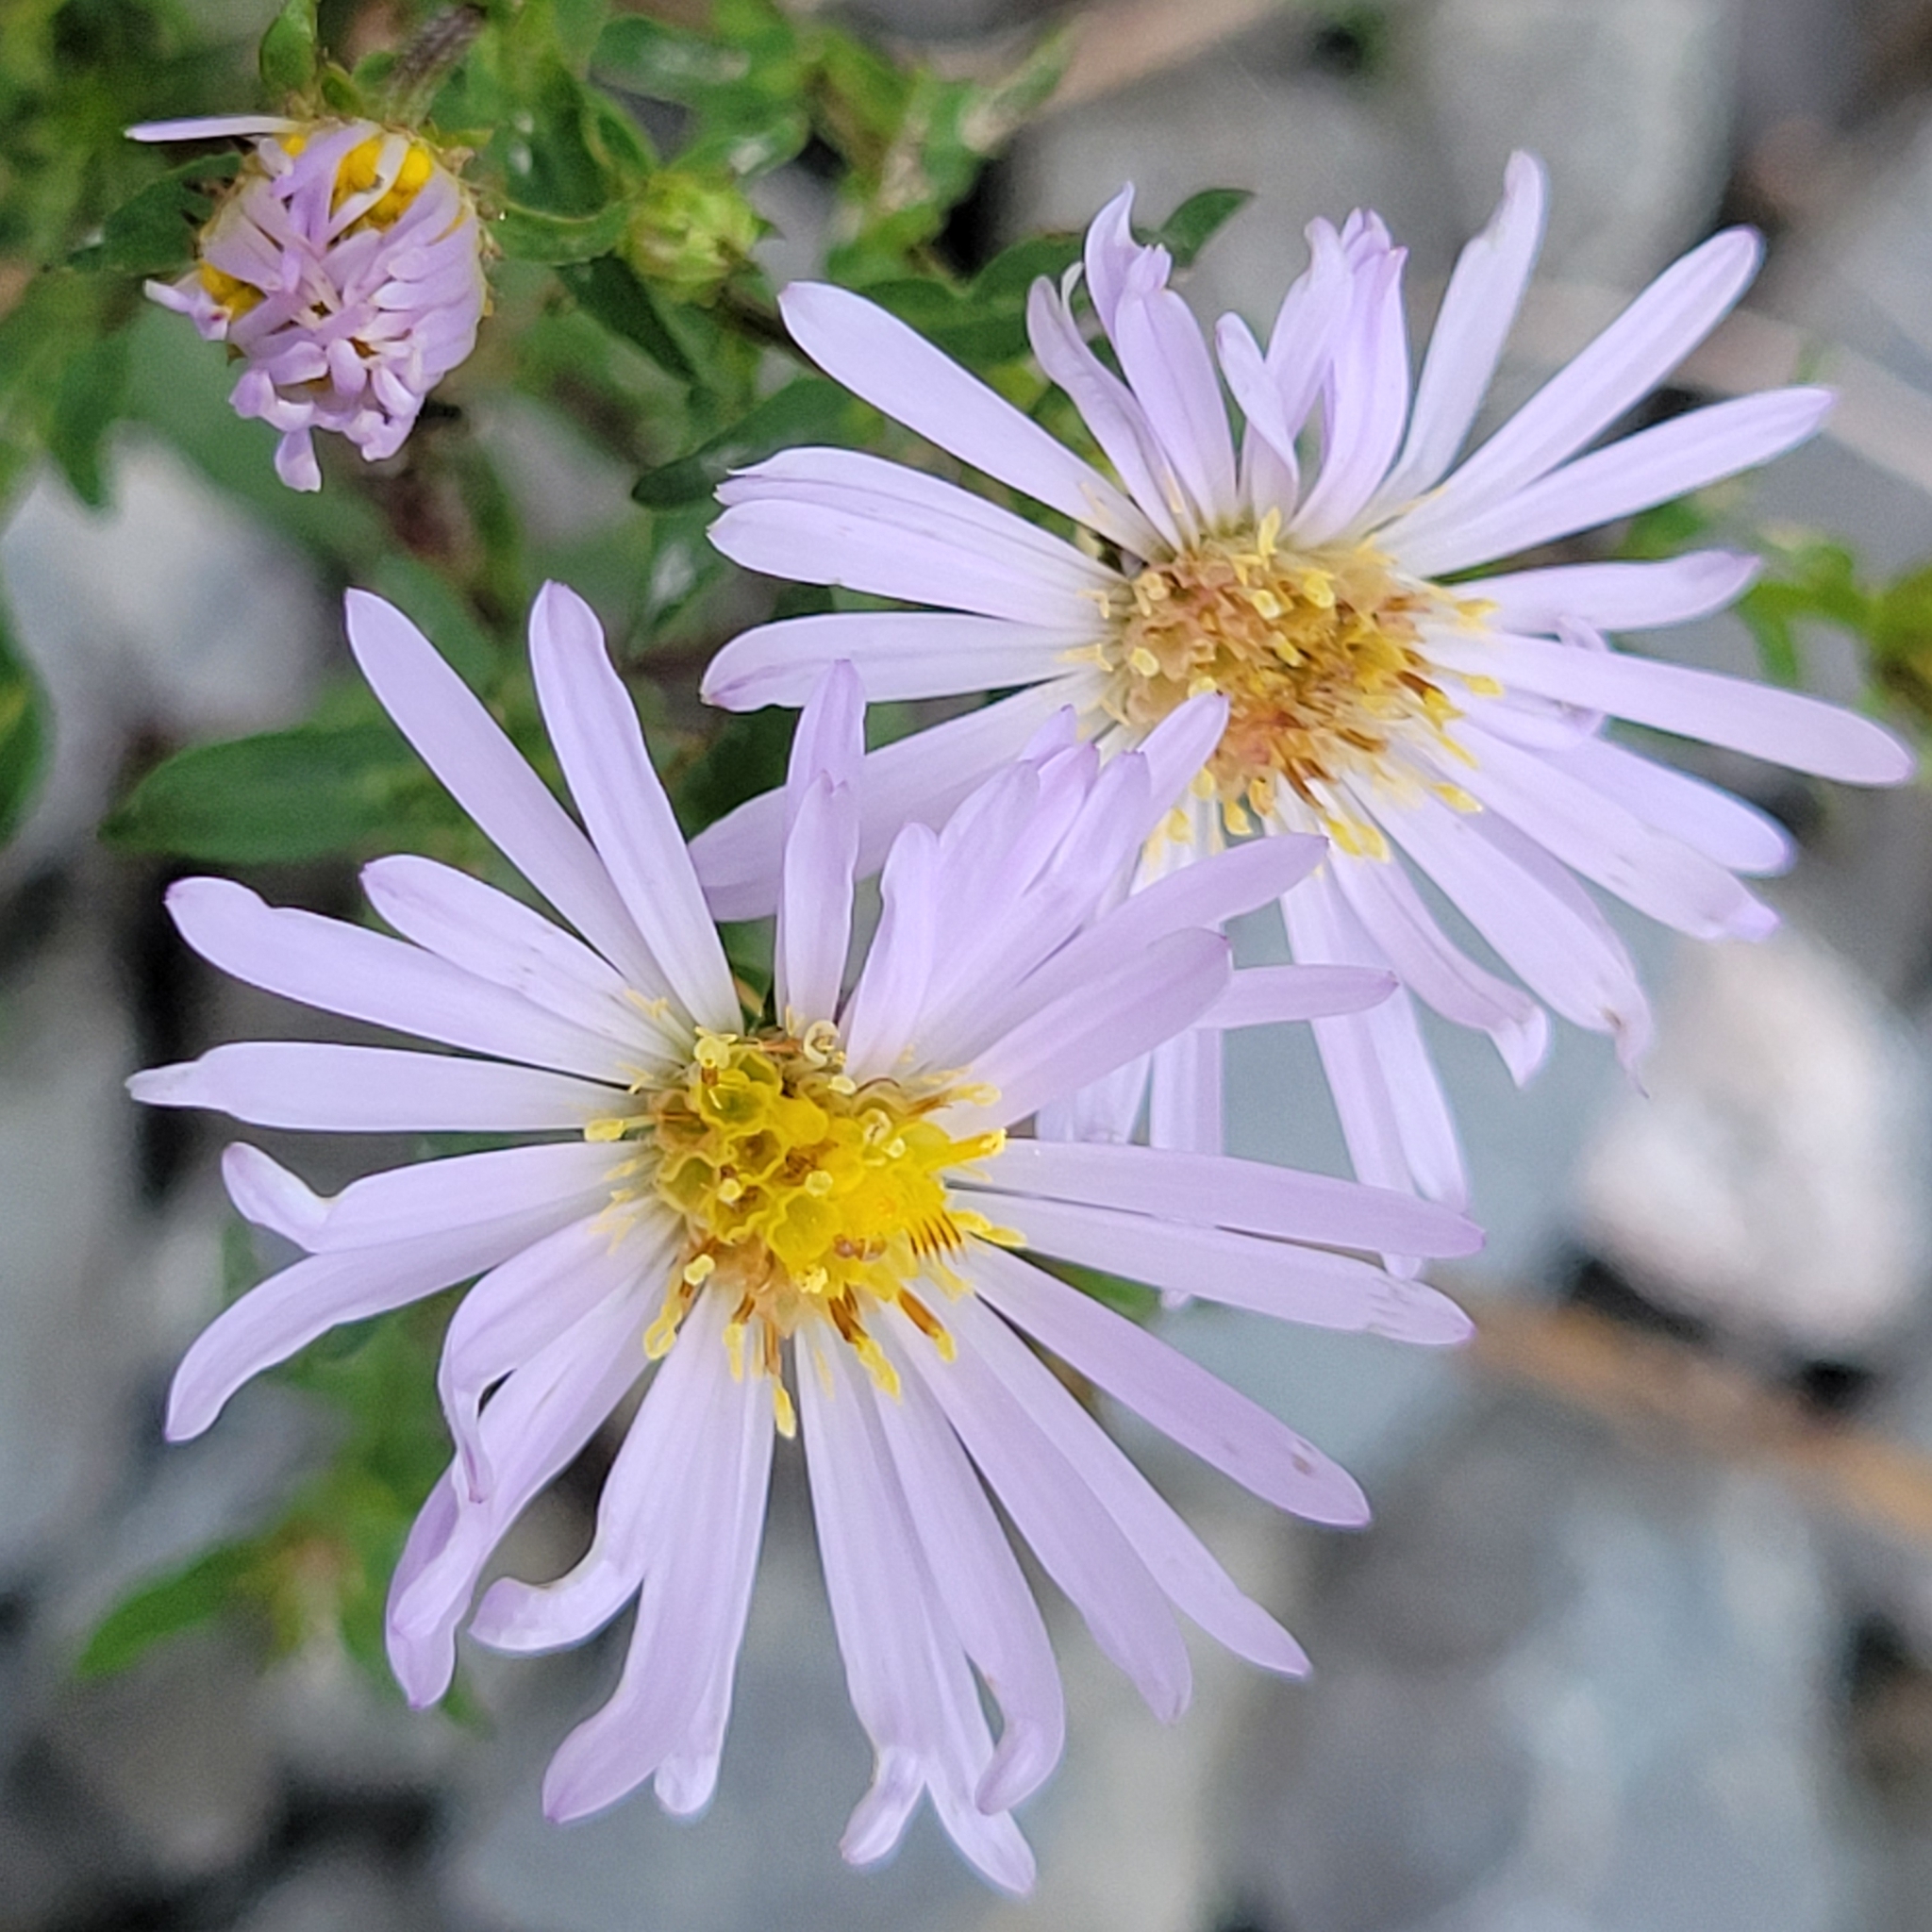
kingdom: Plantae
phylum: Tracheophyta
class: Magnoliopsida
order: Asterales
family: Asteraceae
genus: Symphyotrichum
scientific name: Symphyotrichum novi-belgii
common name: Michaelmas daisy
